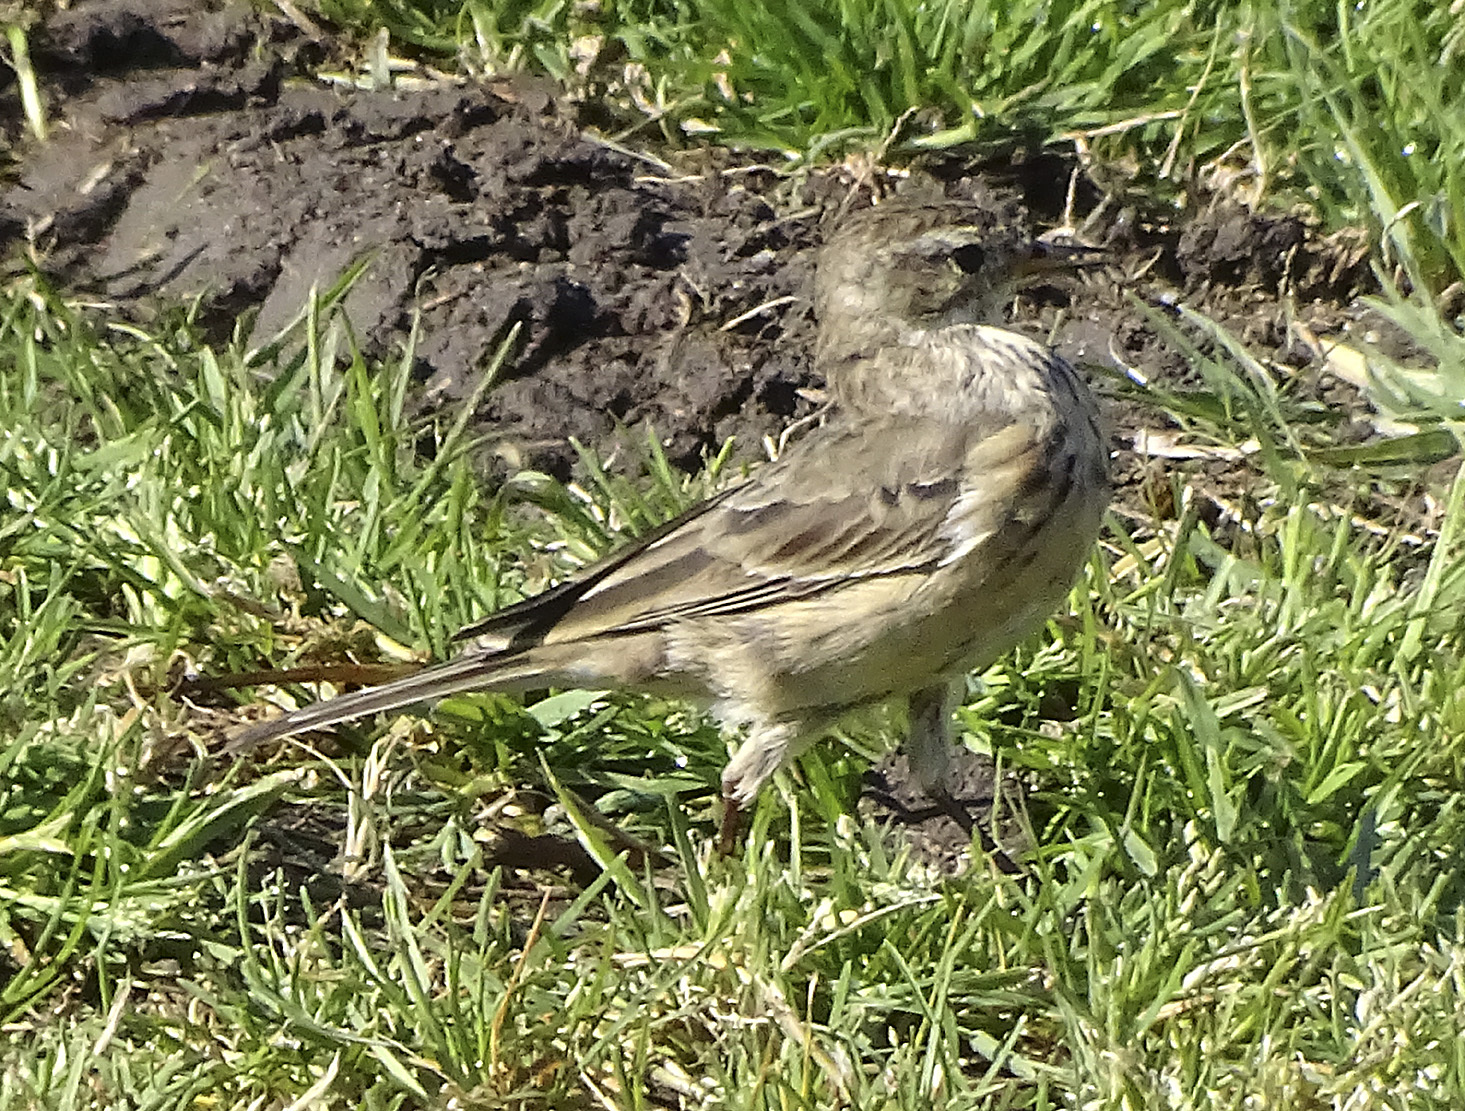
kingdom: Animalia
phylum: Chordata
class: Aves
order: Passeriformes
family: Motacillidae
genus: Anthus
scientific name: Anthus rubescens
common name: Buff-bellied pipit
